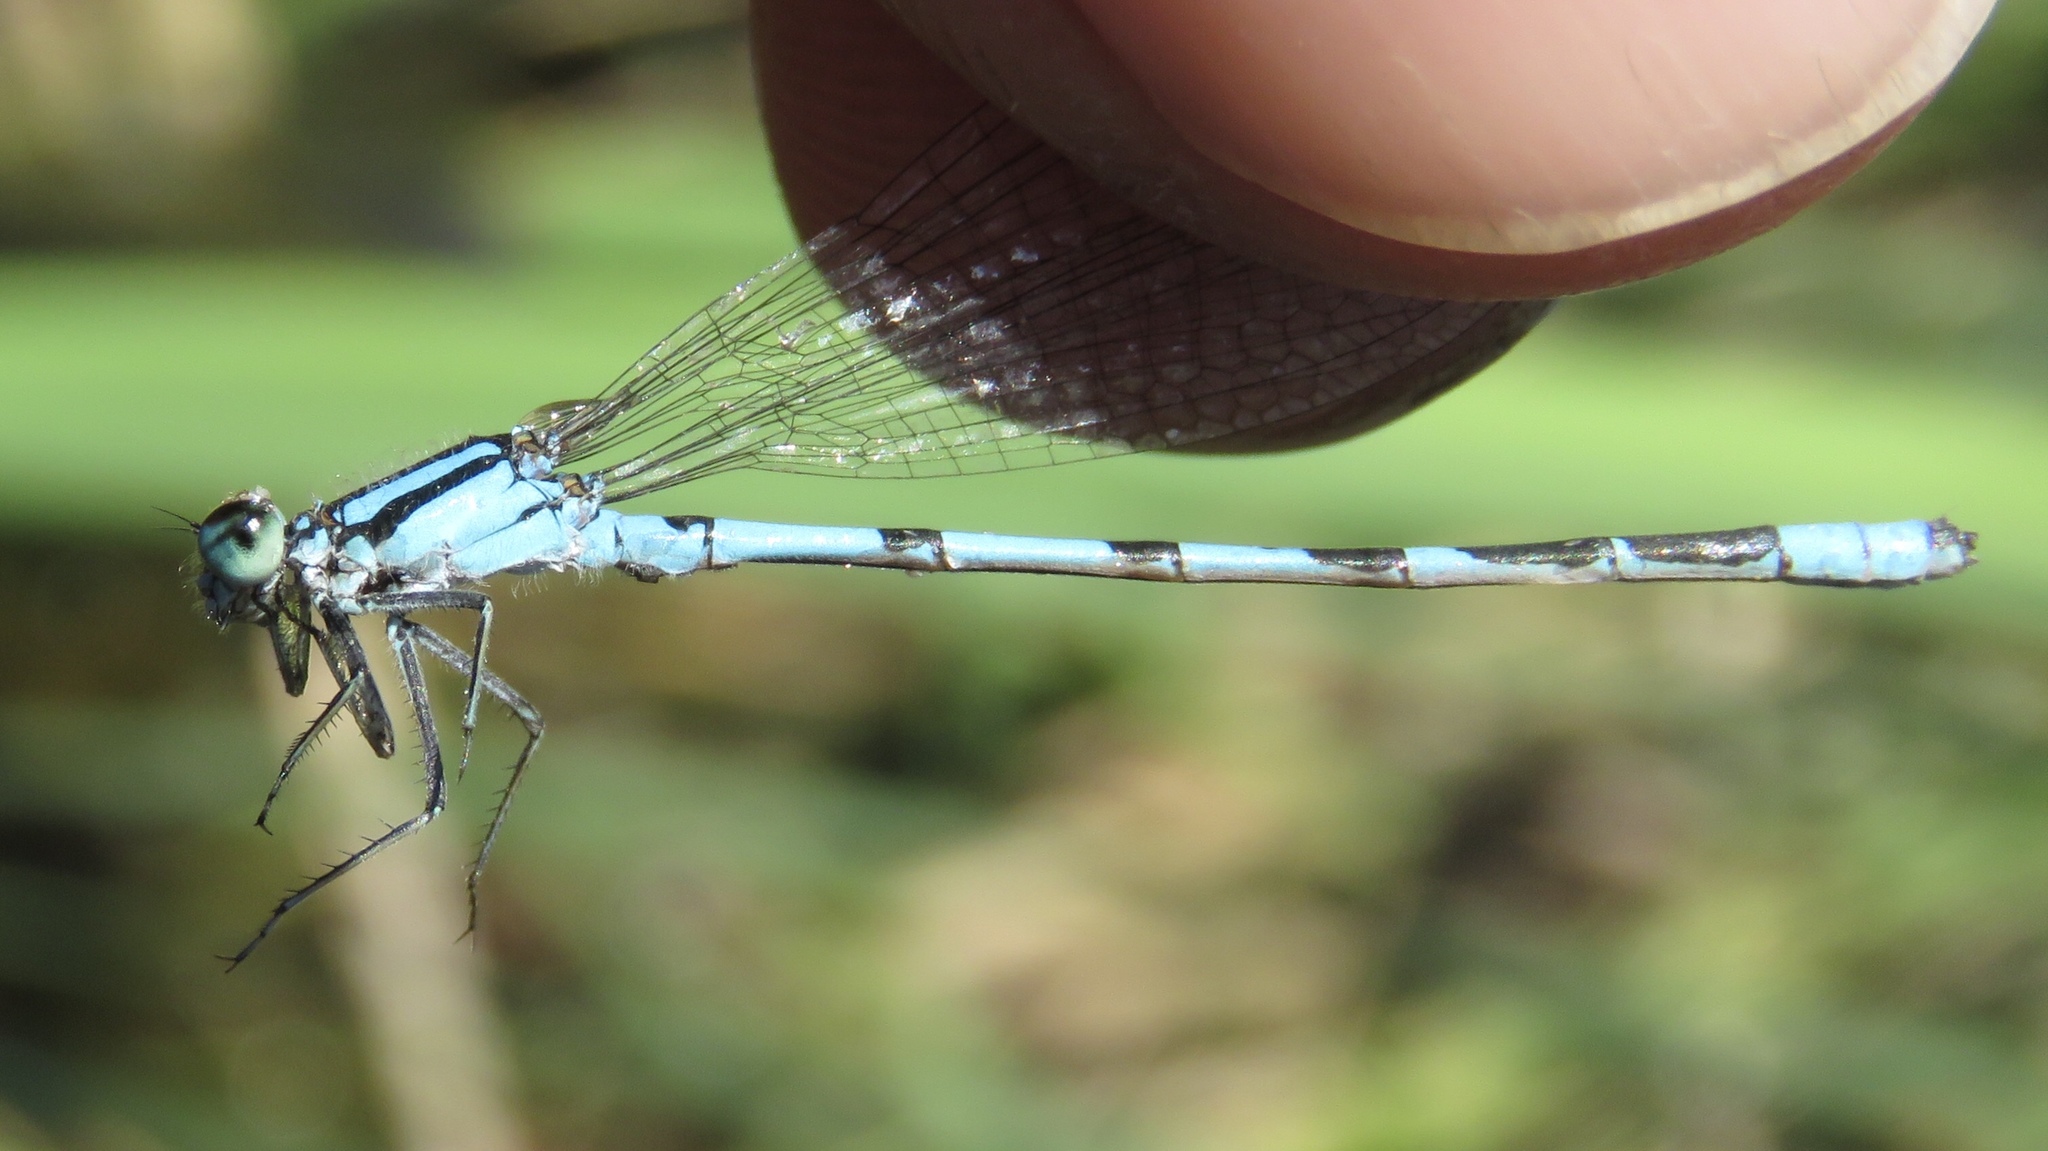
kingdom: Animalia
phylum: Arthropoda
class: Insecta
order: Odonata
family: Coenagrionidae
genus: Enallagma
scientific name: Enallagma ebrium
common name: Marsh bluet
